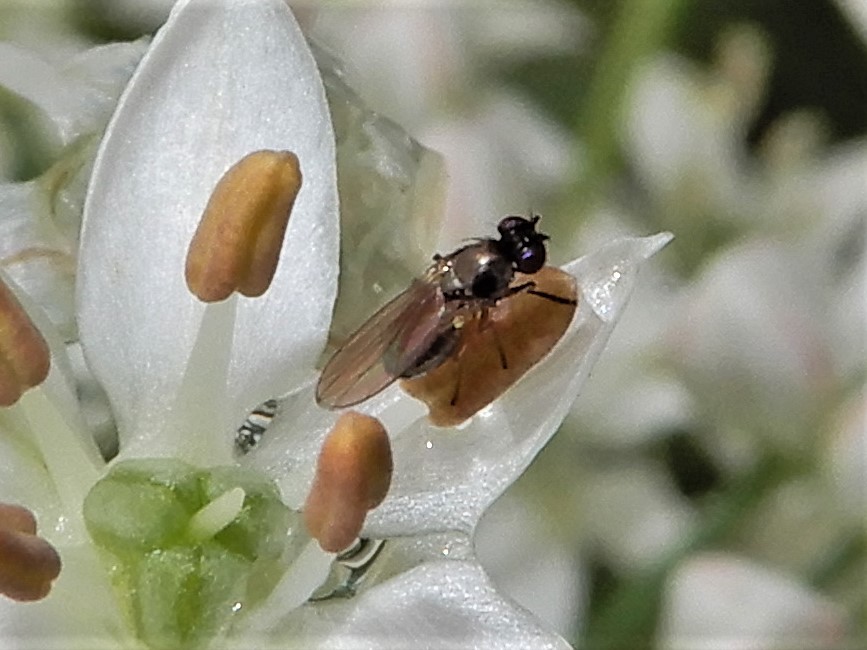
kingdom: Animalia
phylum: Arthropoda
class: Insecta
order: Diptera
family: Ephydridae
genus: Hydrellia
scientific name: Hydrellia tritici
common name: Shore fly
